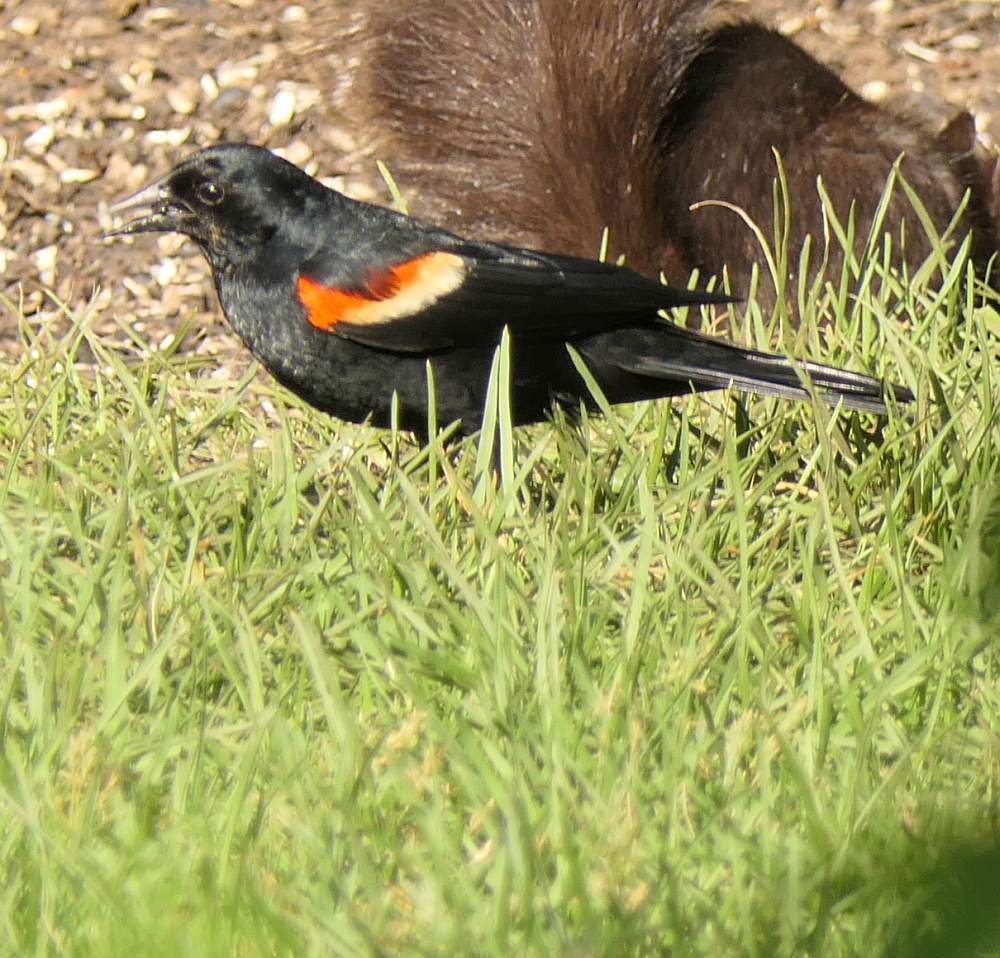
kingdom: Animalia
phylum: Chordata
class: Aves
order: Passeriformes
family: Icteridae
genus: Agelaius
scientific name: Agelaius phoeniceus
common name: Red-winged blackbird
